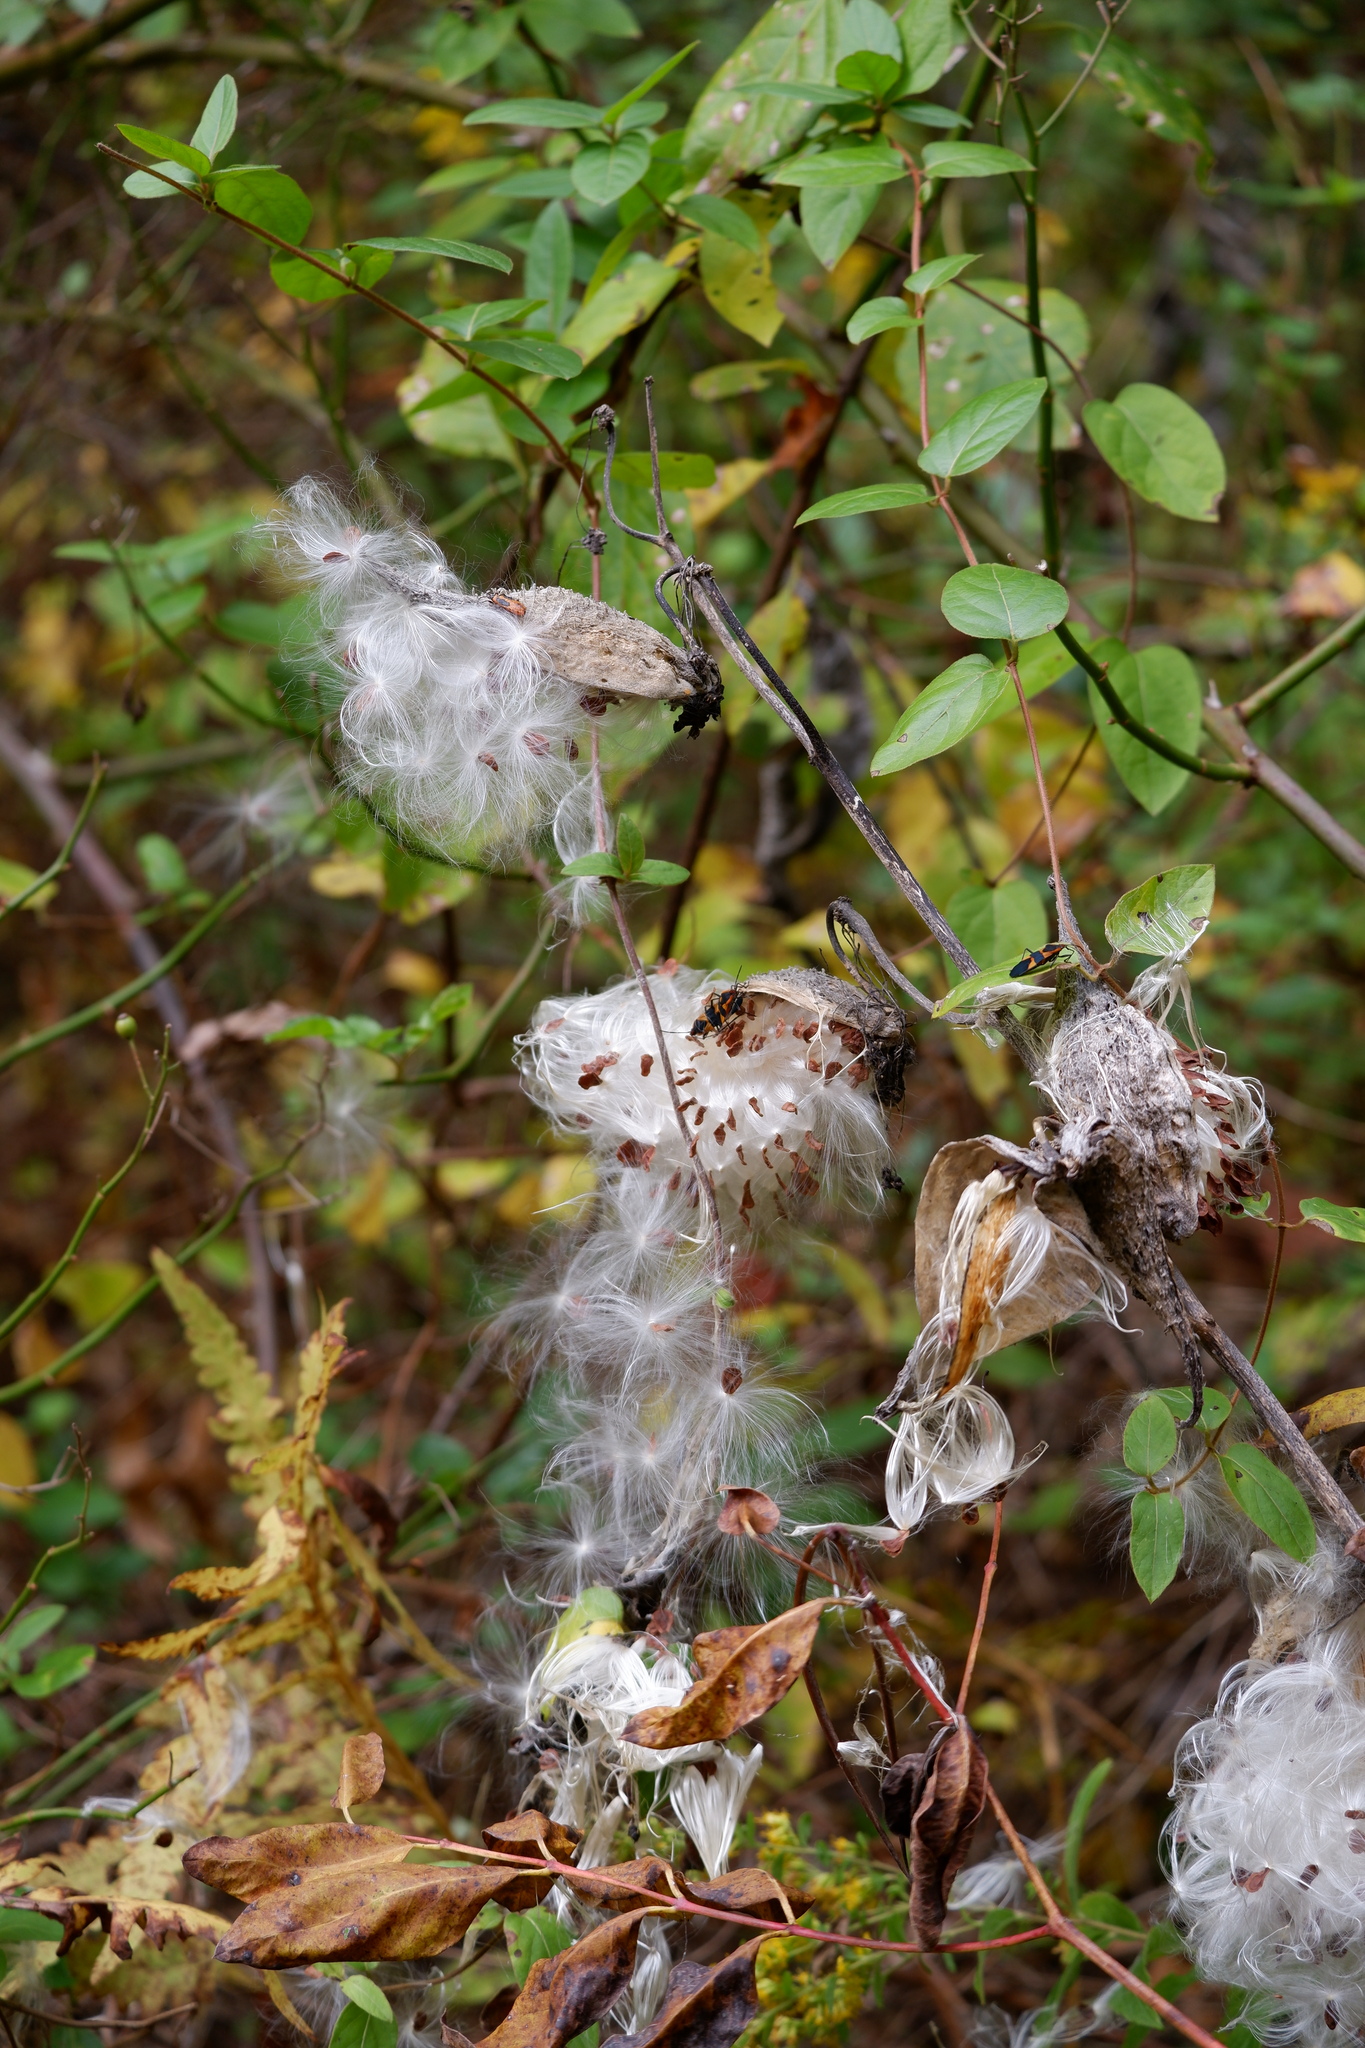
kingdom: Plantae
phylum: Tracheophyta
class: Magnoliopsida
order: Gentianales
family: Apocynaceae
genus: Asclepias
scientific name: Asclepias syriaca
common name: Common milkweed
